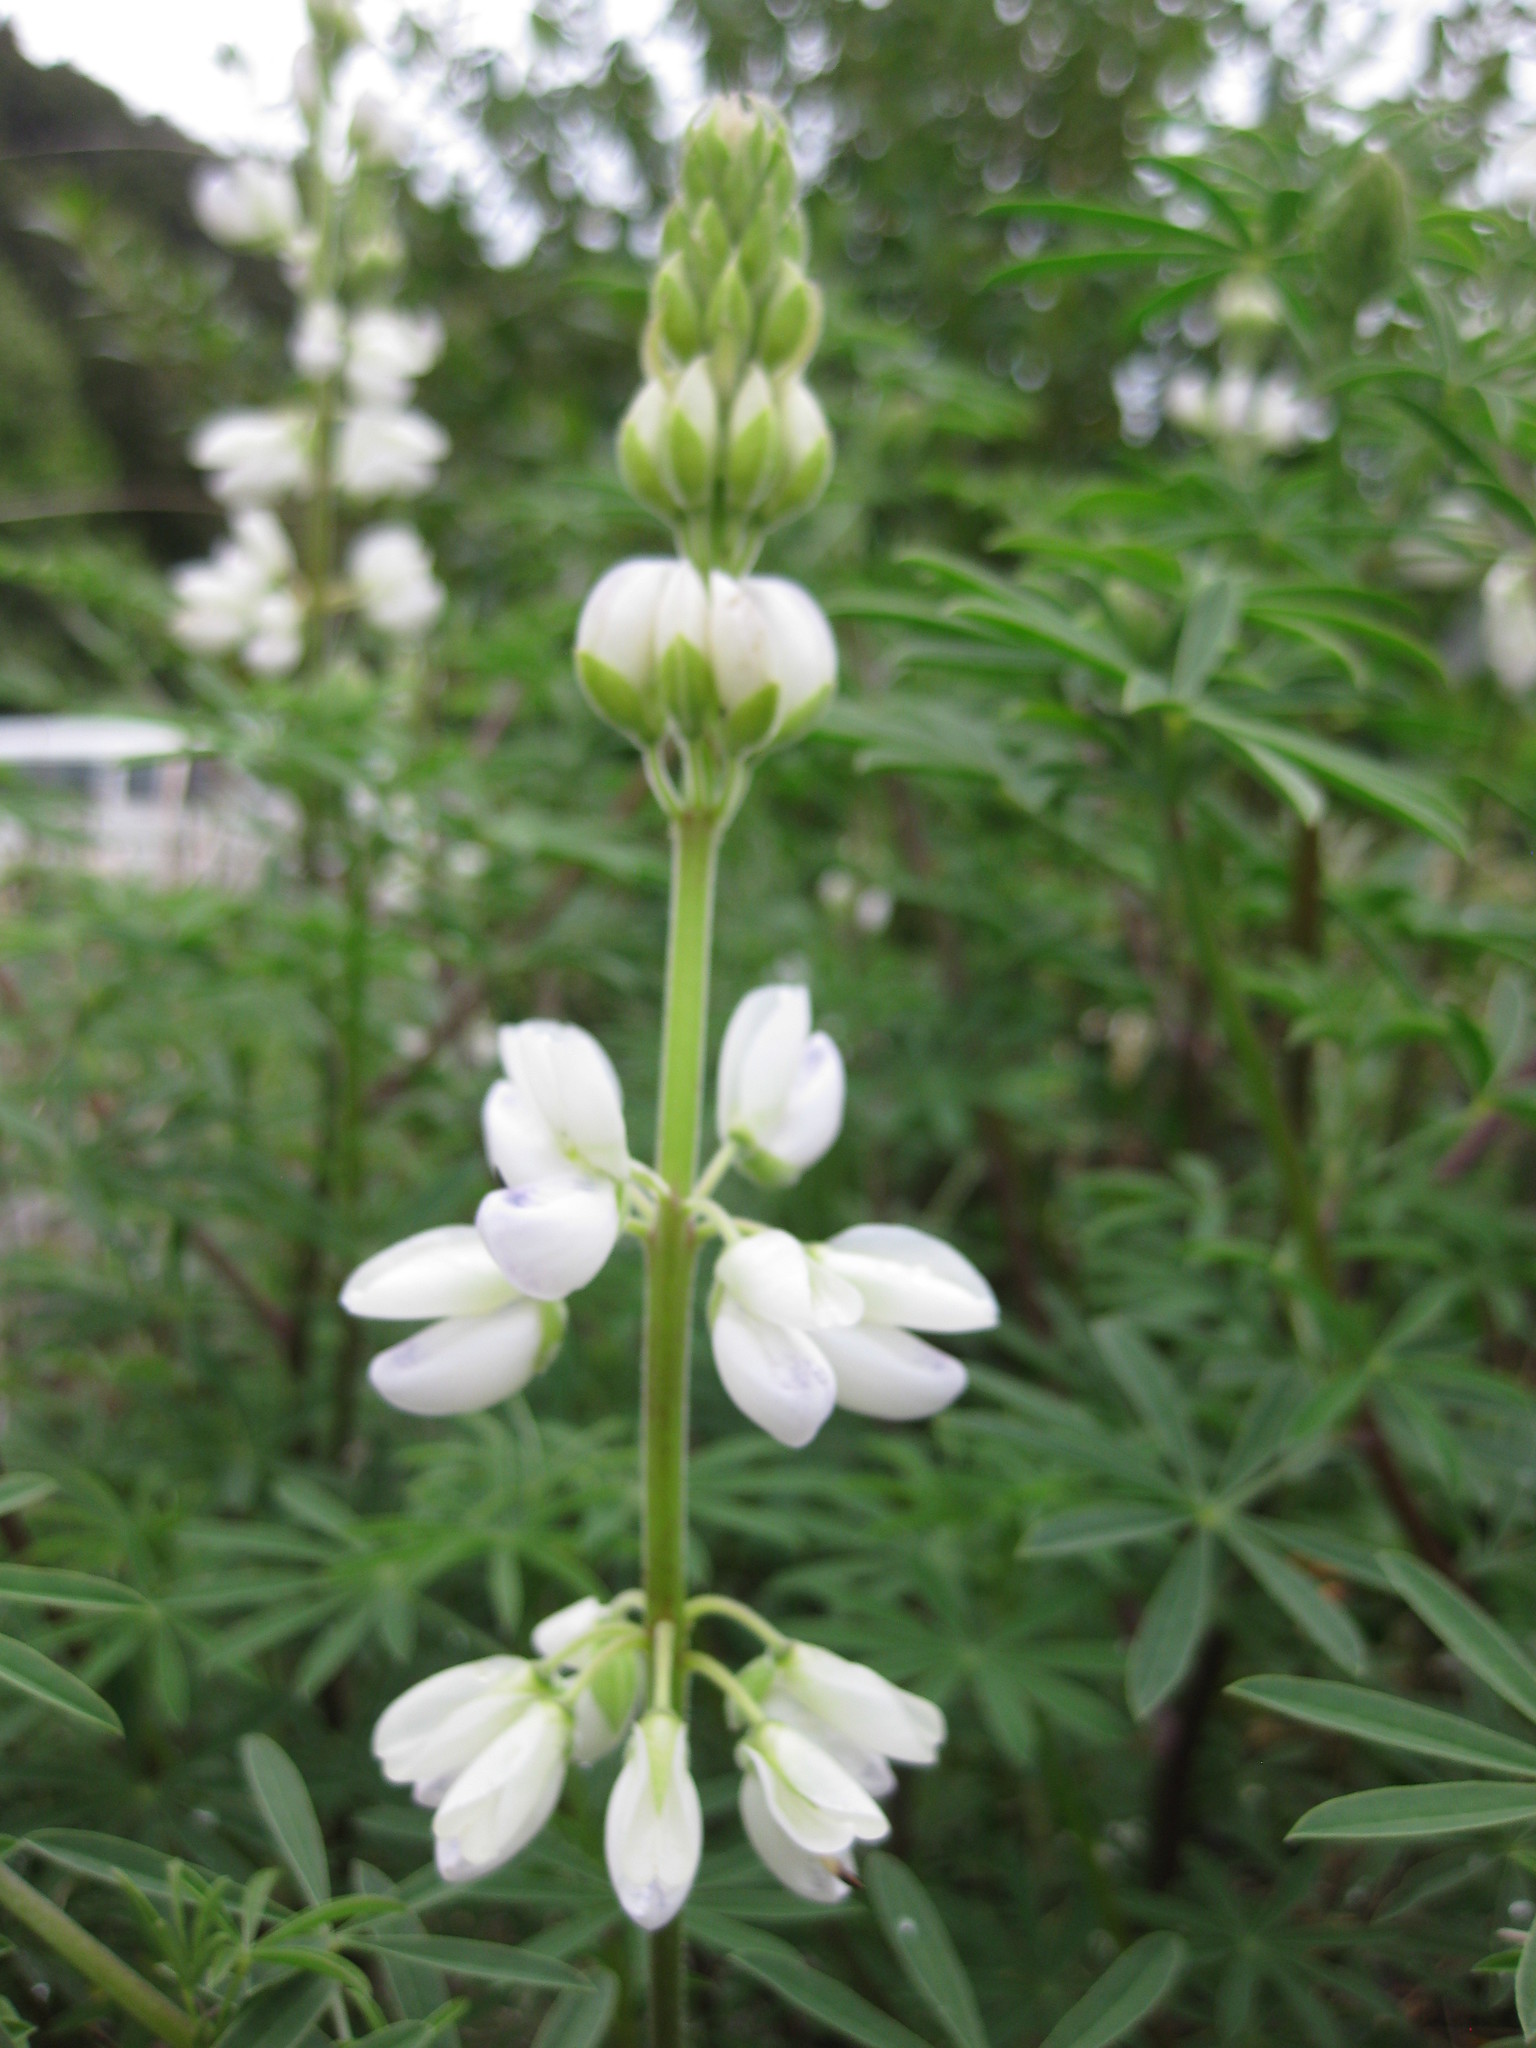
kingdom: Plantae
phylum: Tracheophyta
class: Magnoliopsida
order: Fabales
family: Fabaceae
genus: Lupinus
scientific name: Lupinus arboreus
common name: Yellow bush lupine
